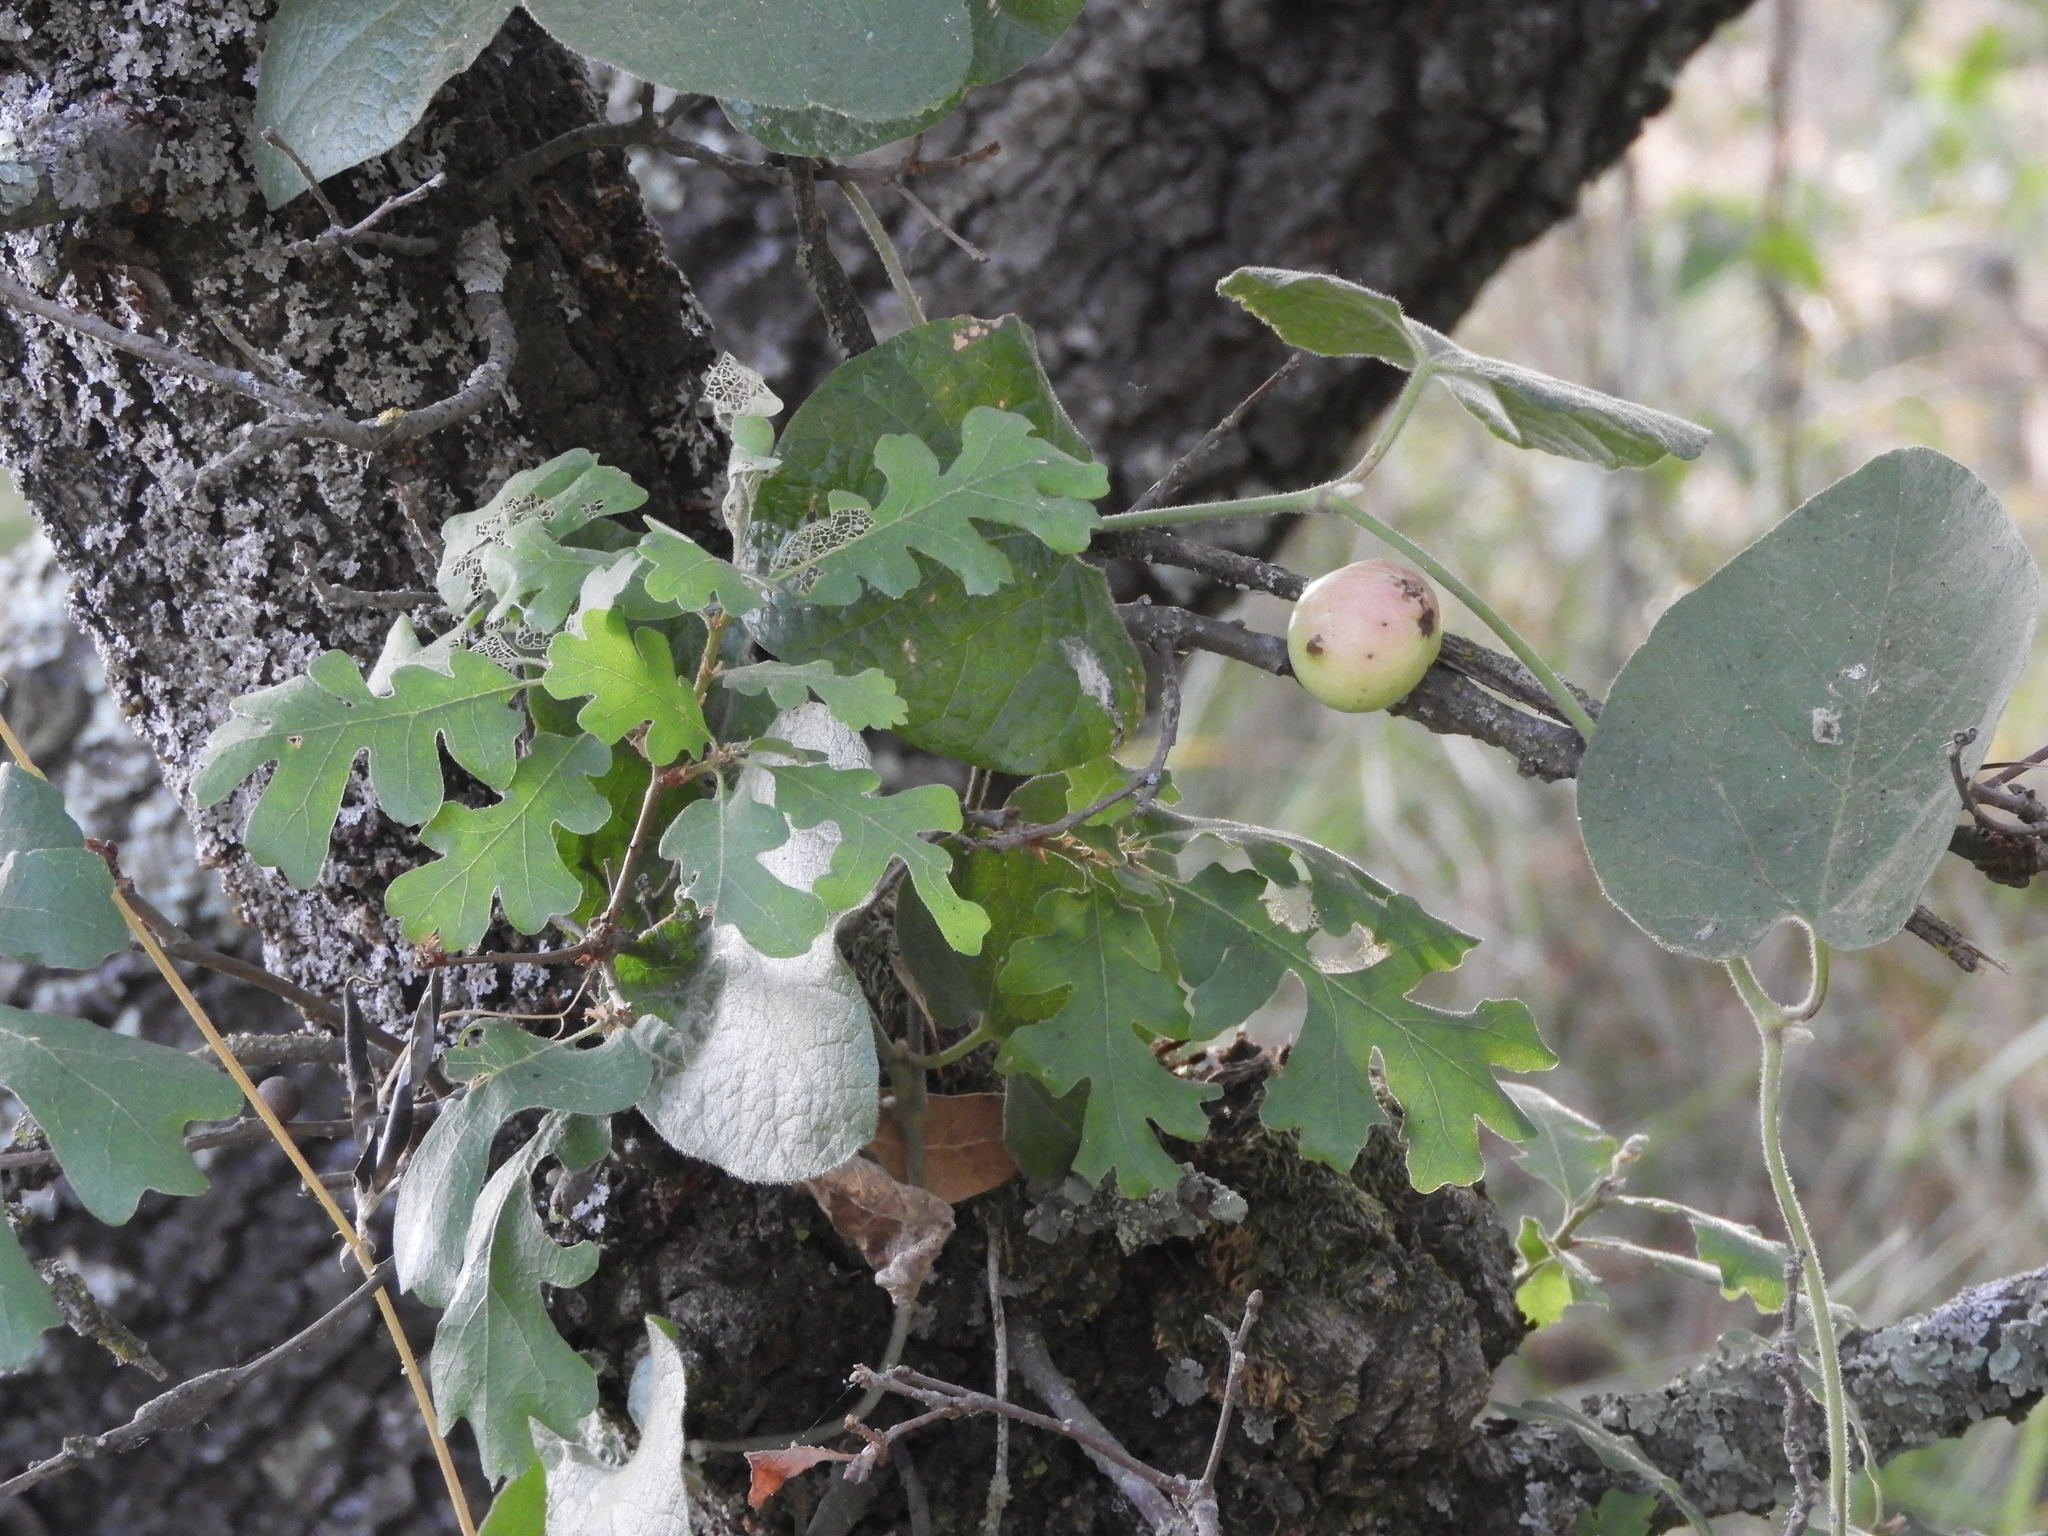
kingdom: Plantae
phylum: Tracheophyta
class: Magnoliopsida
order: Fagales
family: Fagaceae
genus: Quercus
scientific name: Quercus lobata
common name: Valley oak
